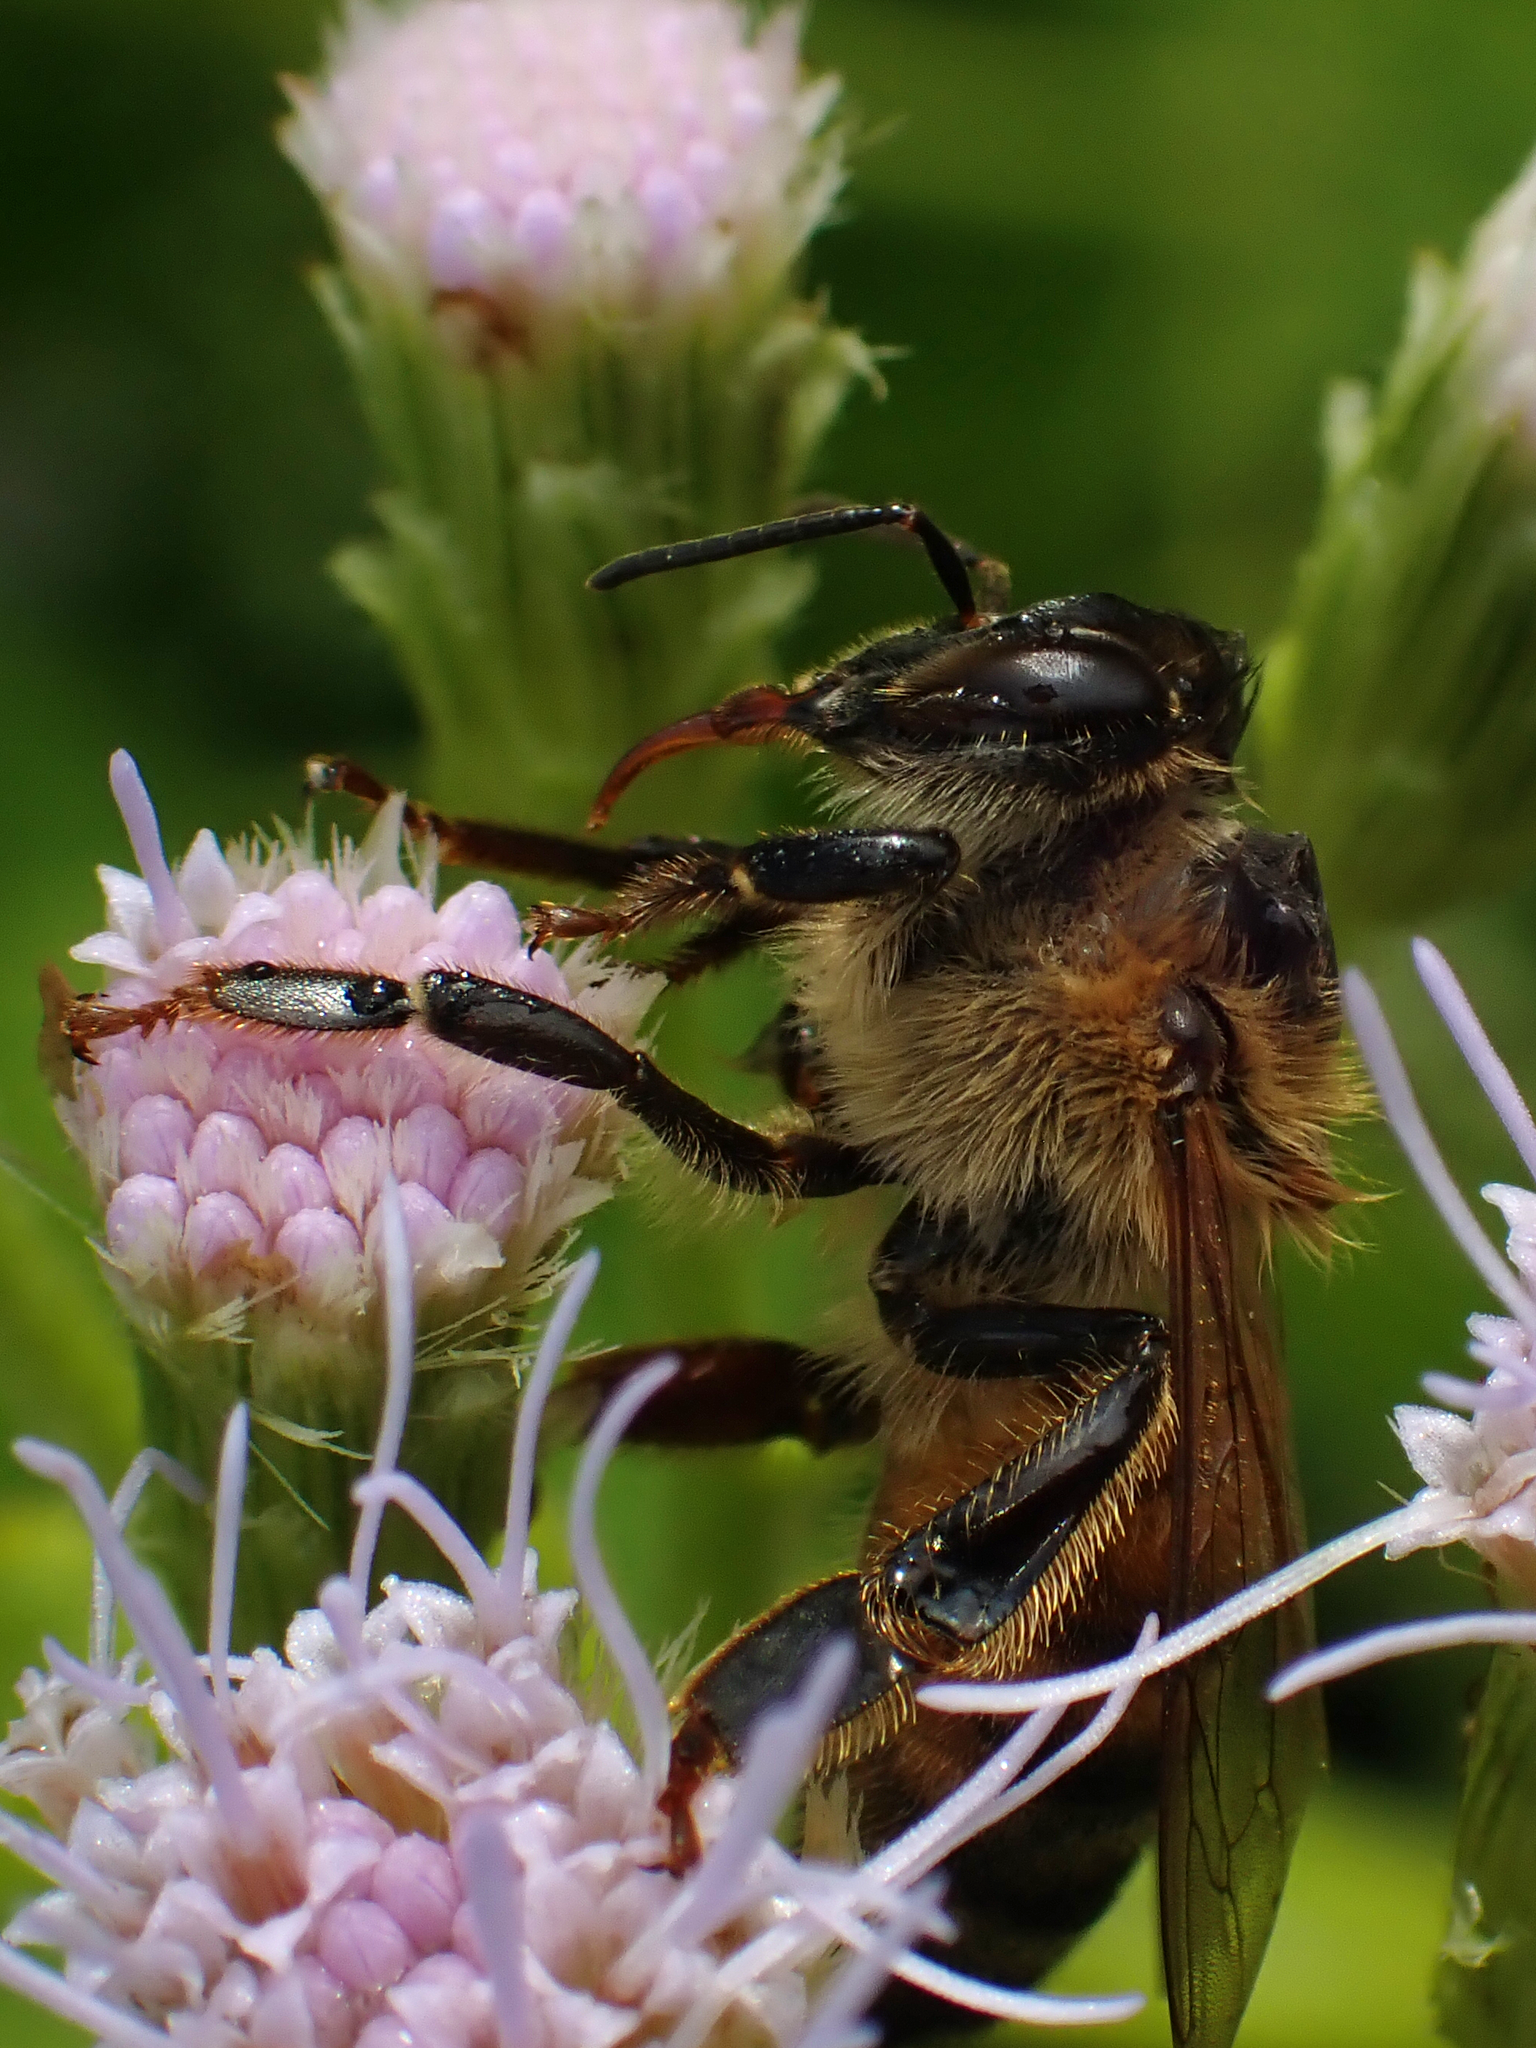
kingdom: Animalia
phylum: Arthropoda
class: Insecta
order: Hymenoptera
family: Apidae
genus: Apis
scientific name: Apis mellifera
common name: Honey bee
